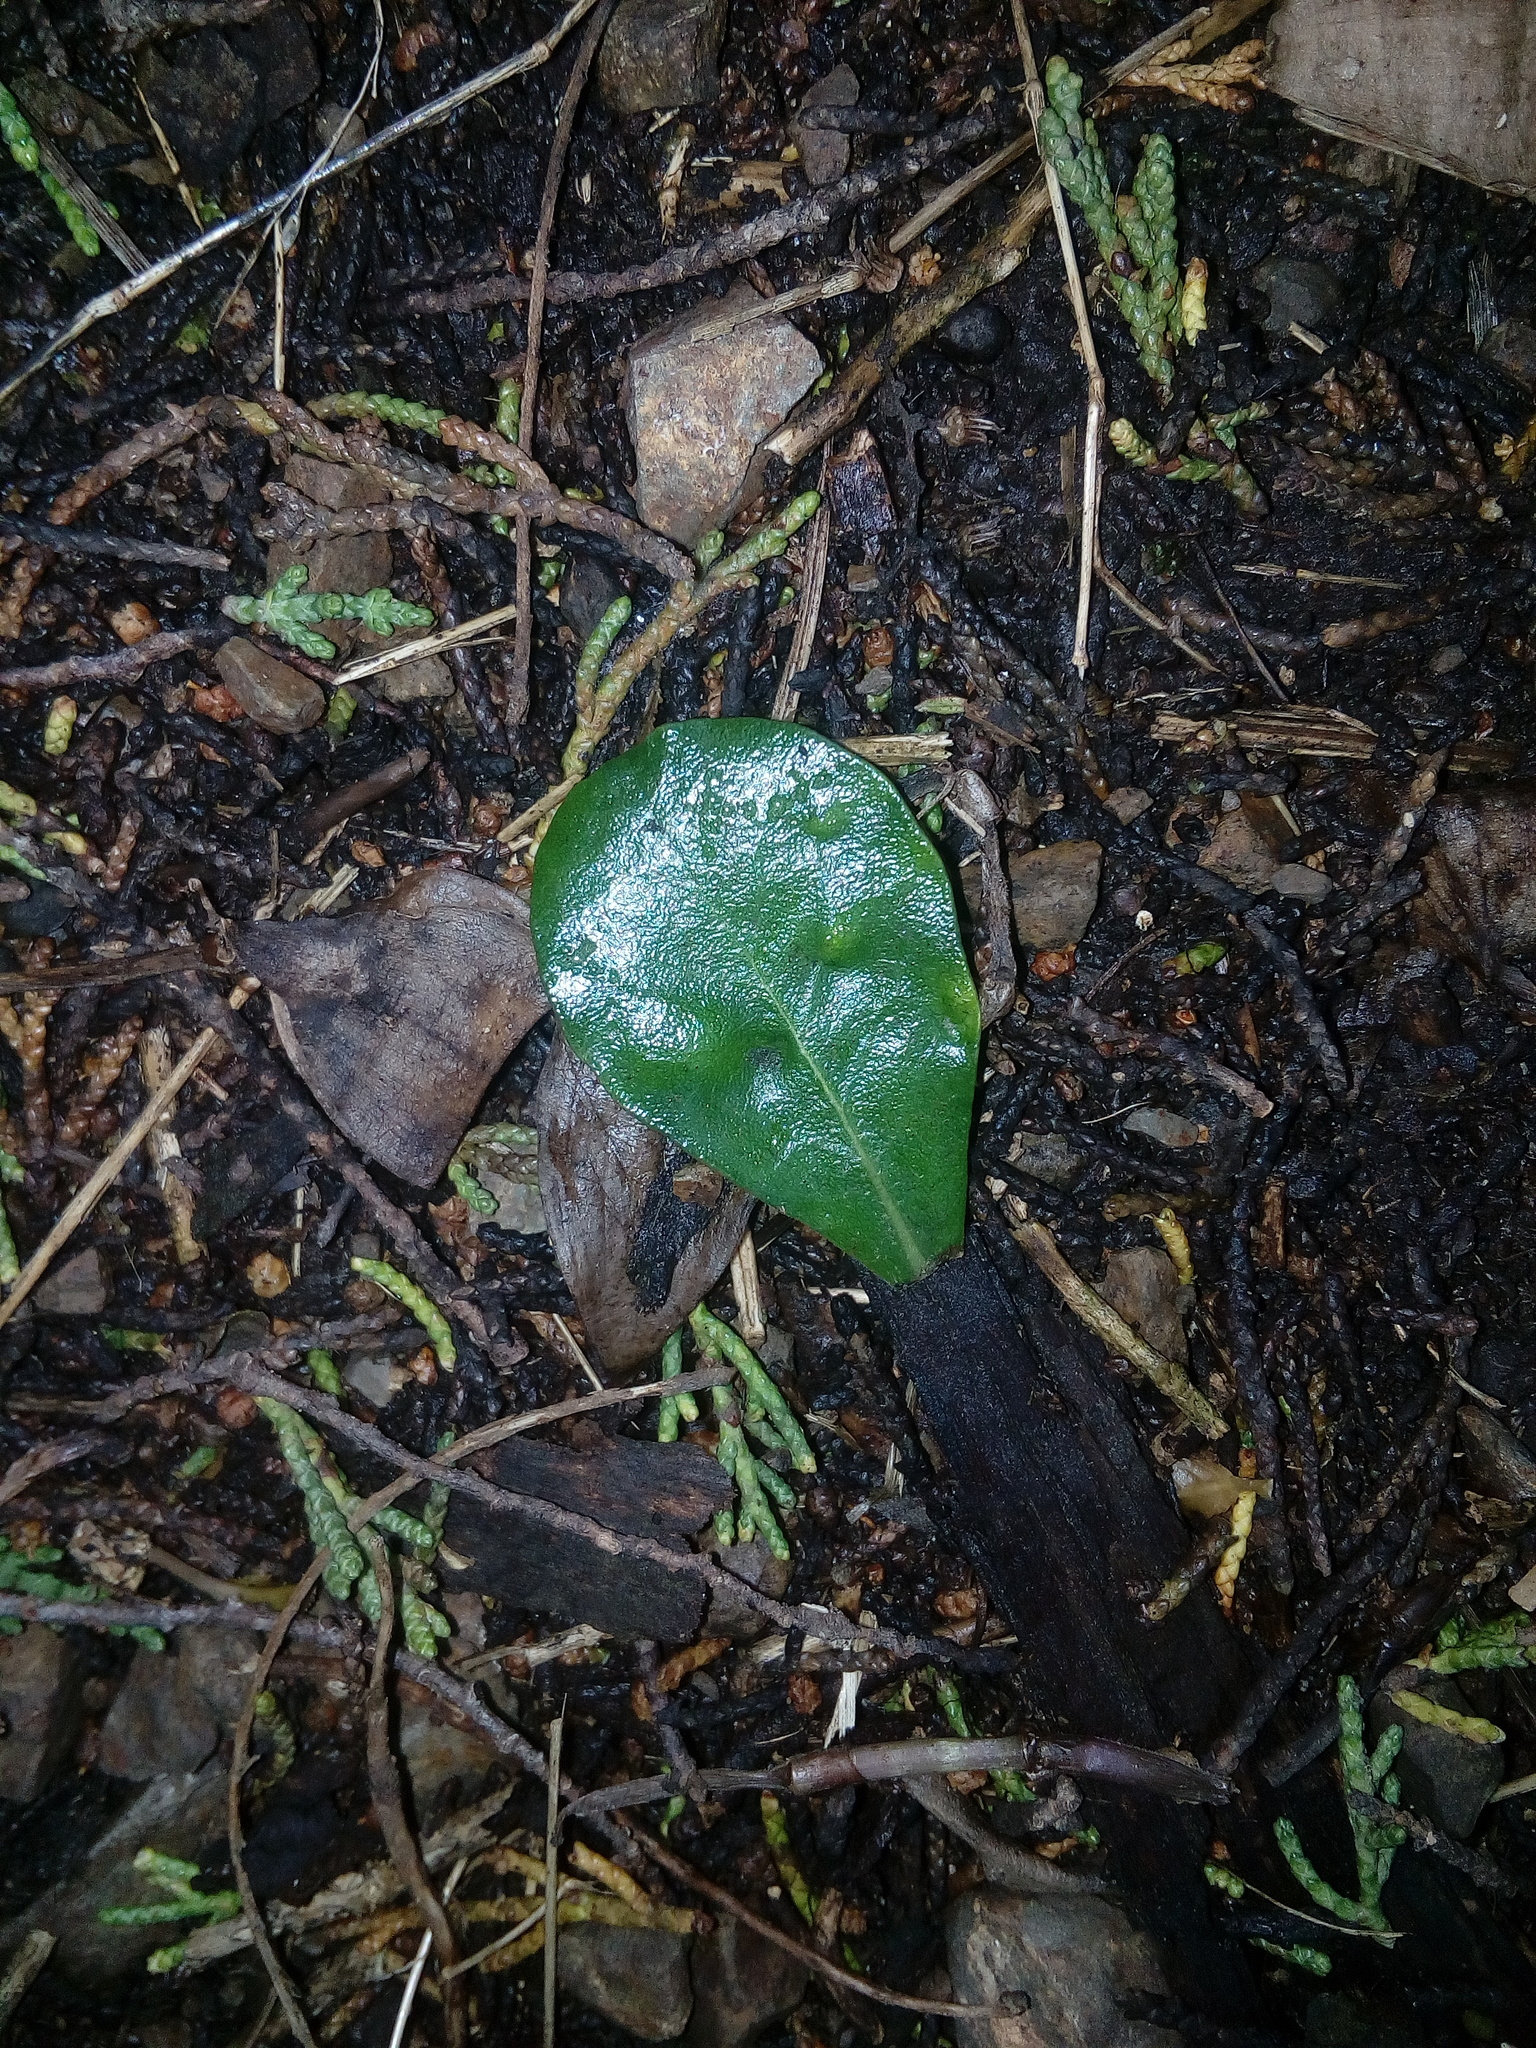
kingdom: Plantae
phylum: Tracheophyta
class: Magnoliopsida
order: Apiales
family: Pittosporaceae
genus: Pittosporum
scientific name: Pittosporum crassifolium
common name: Karo
